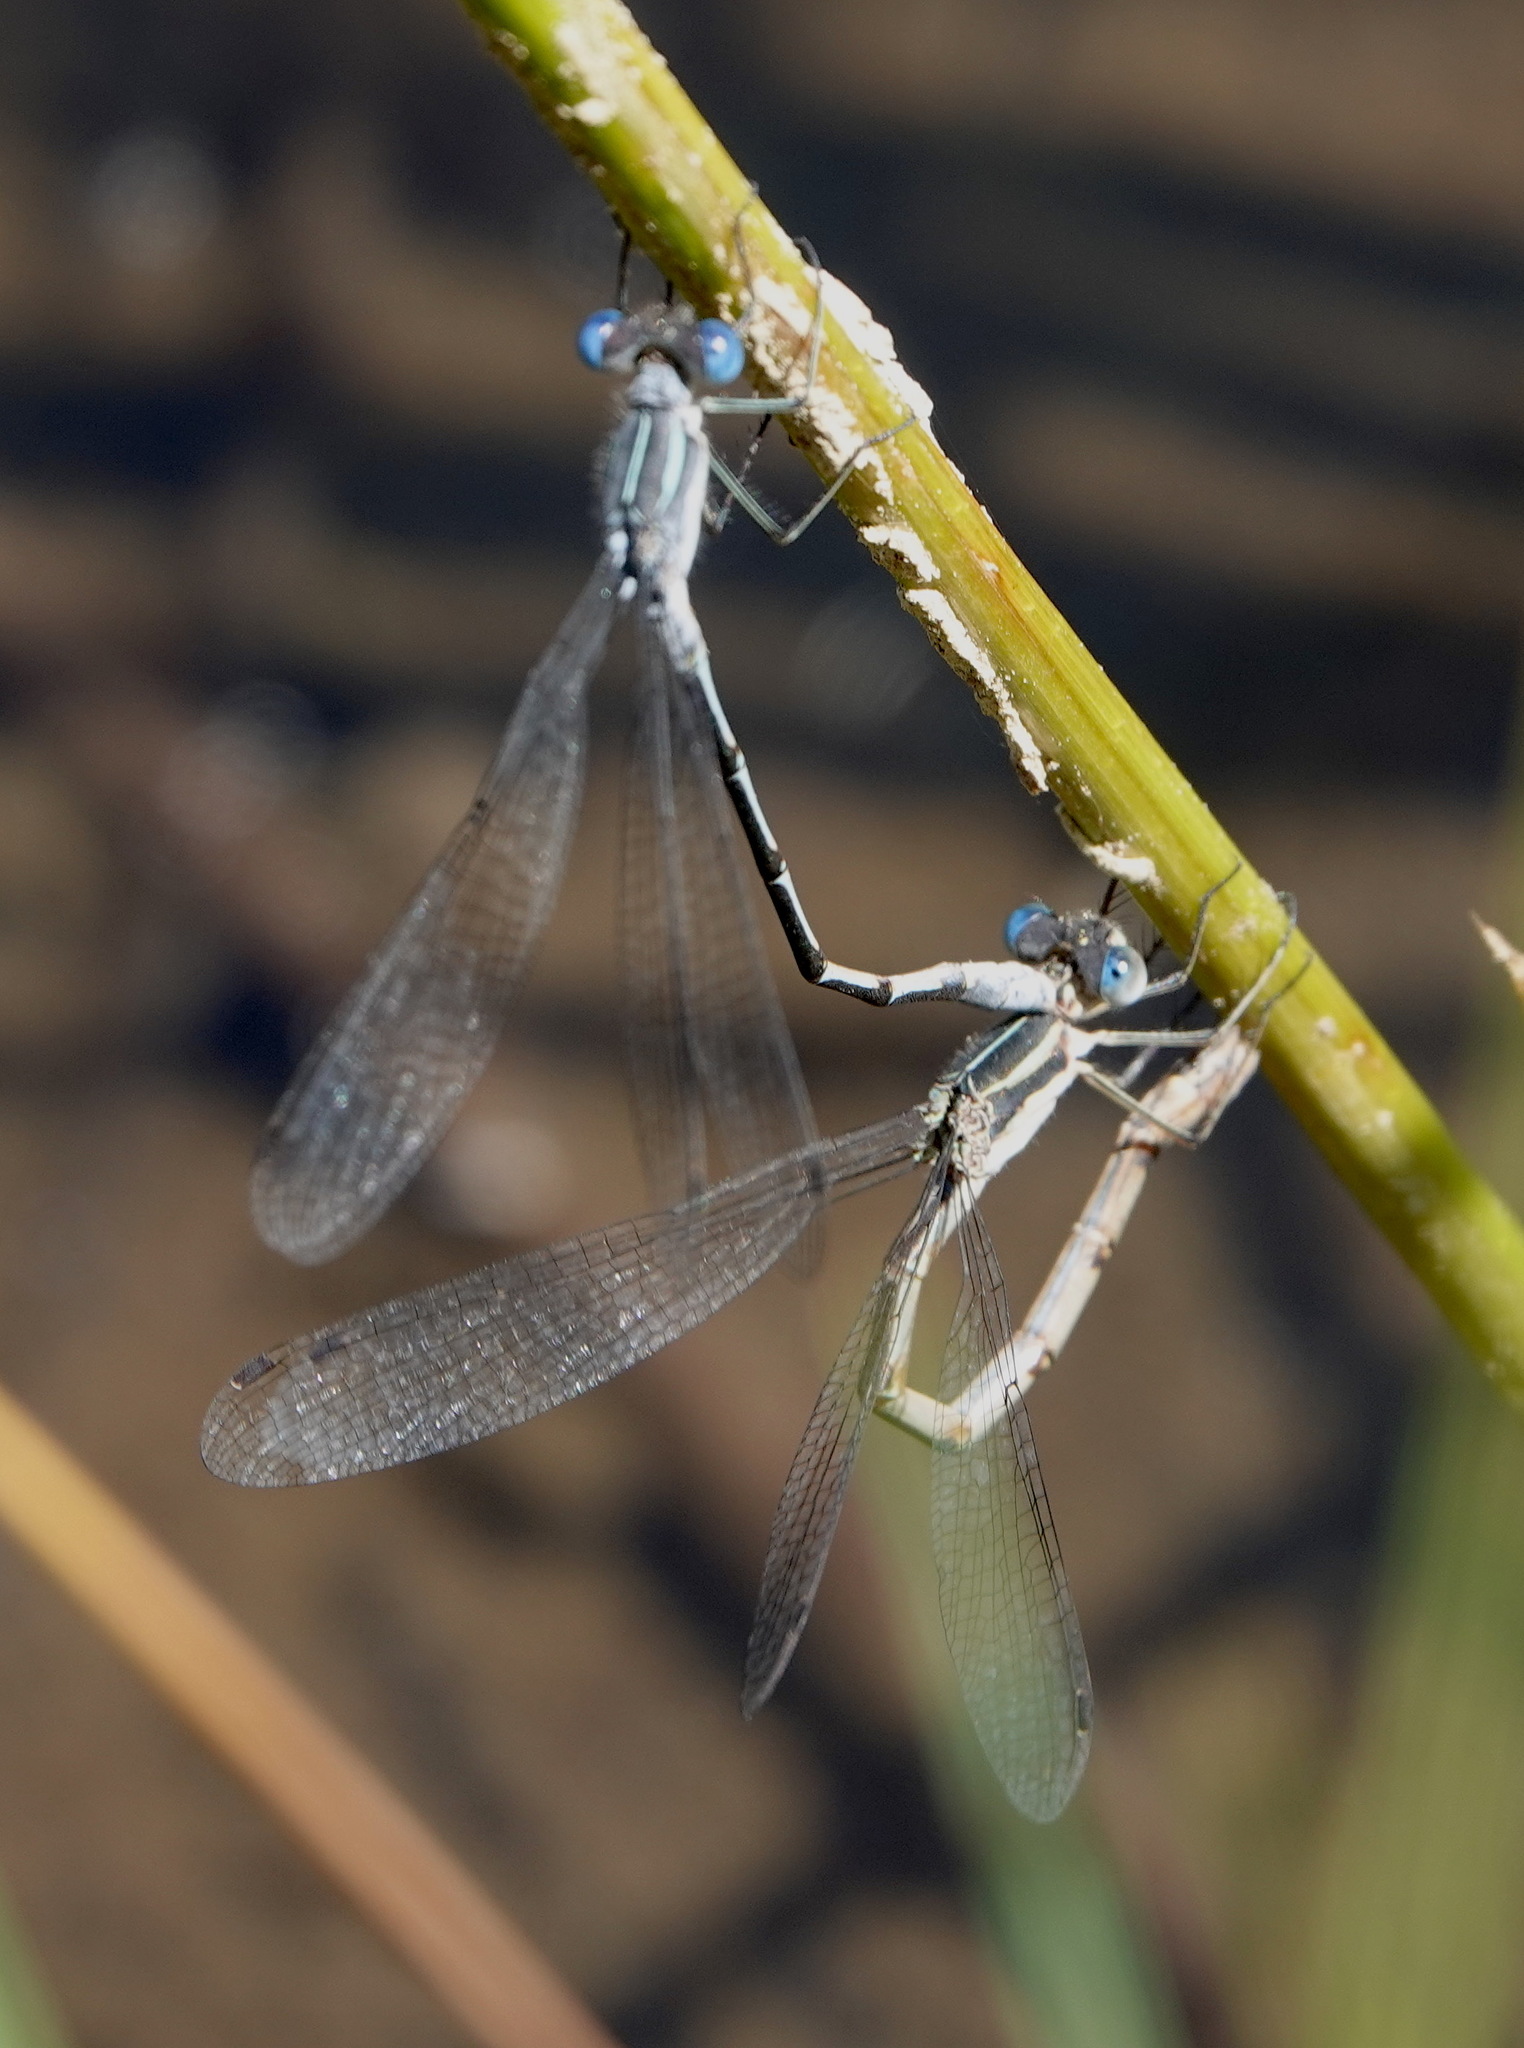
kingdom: Animalia
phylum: Arthropoda
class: Insecta
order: Odonata
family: Lestidae
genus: Lestes
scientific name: Lestes disjunctus
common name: Northern spreadwing
